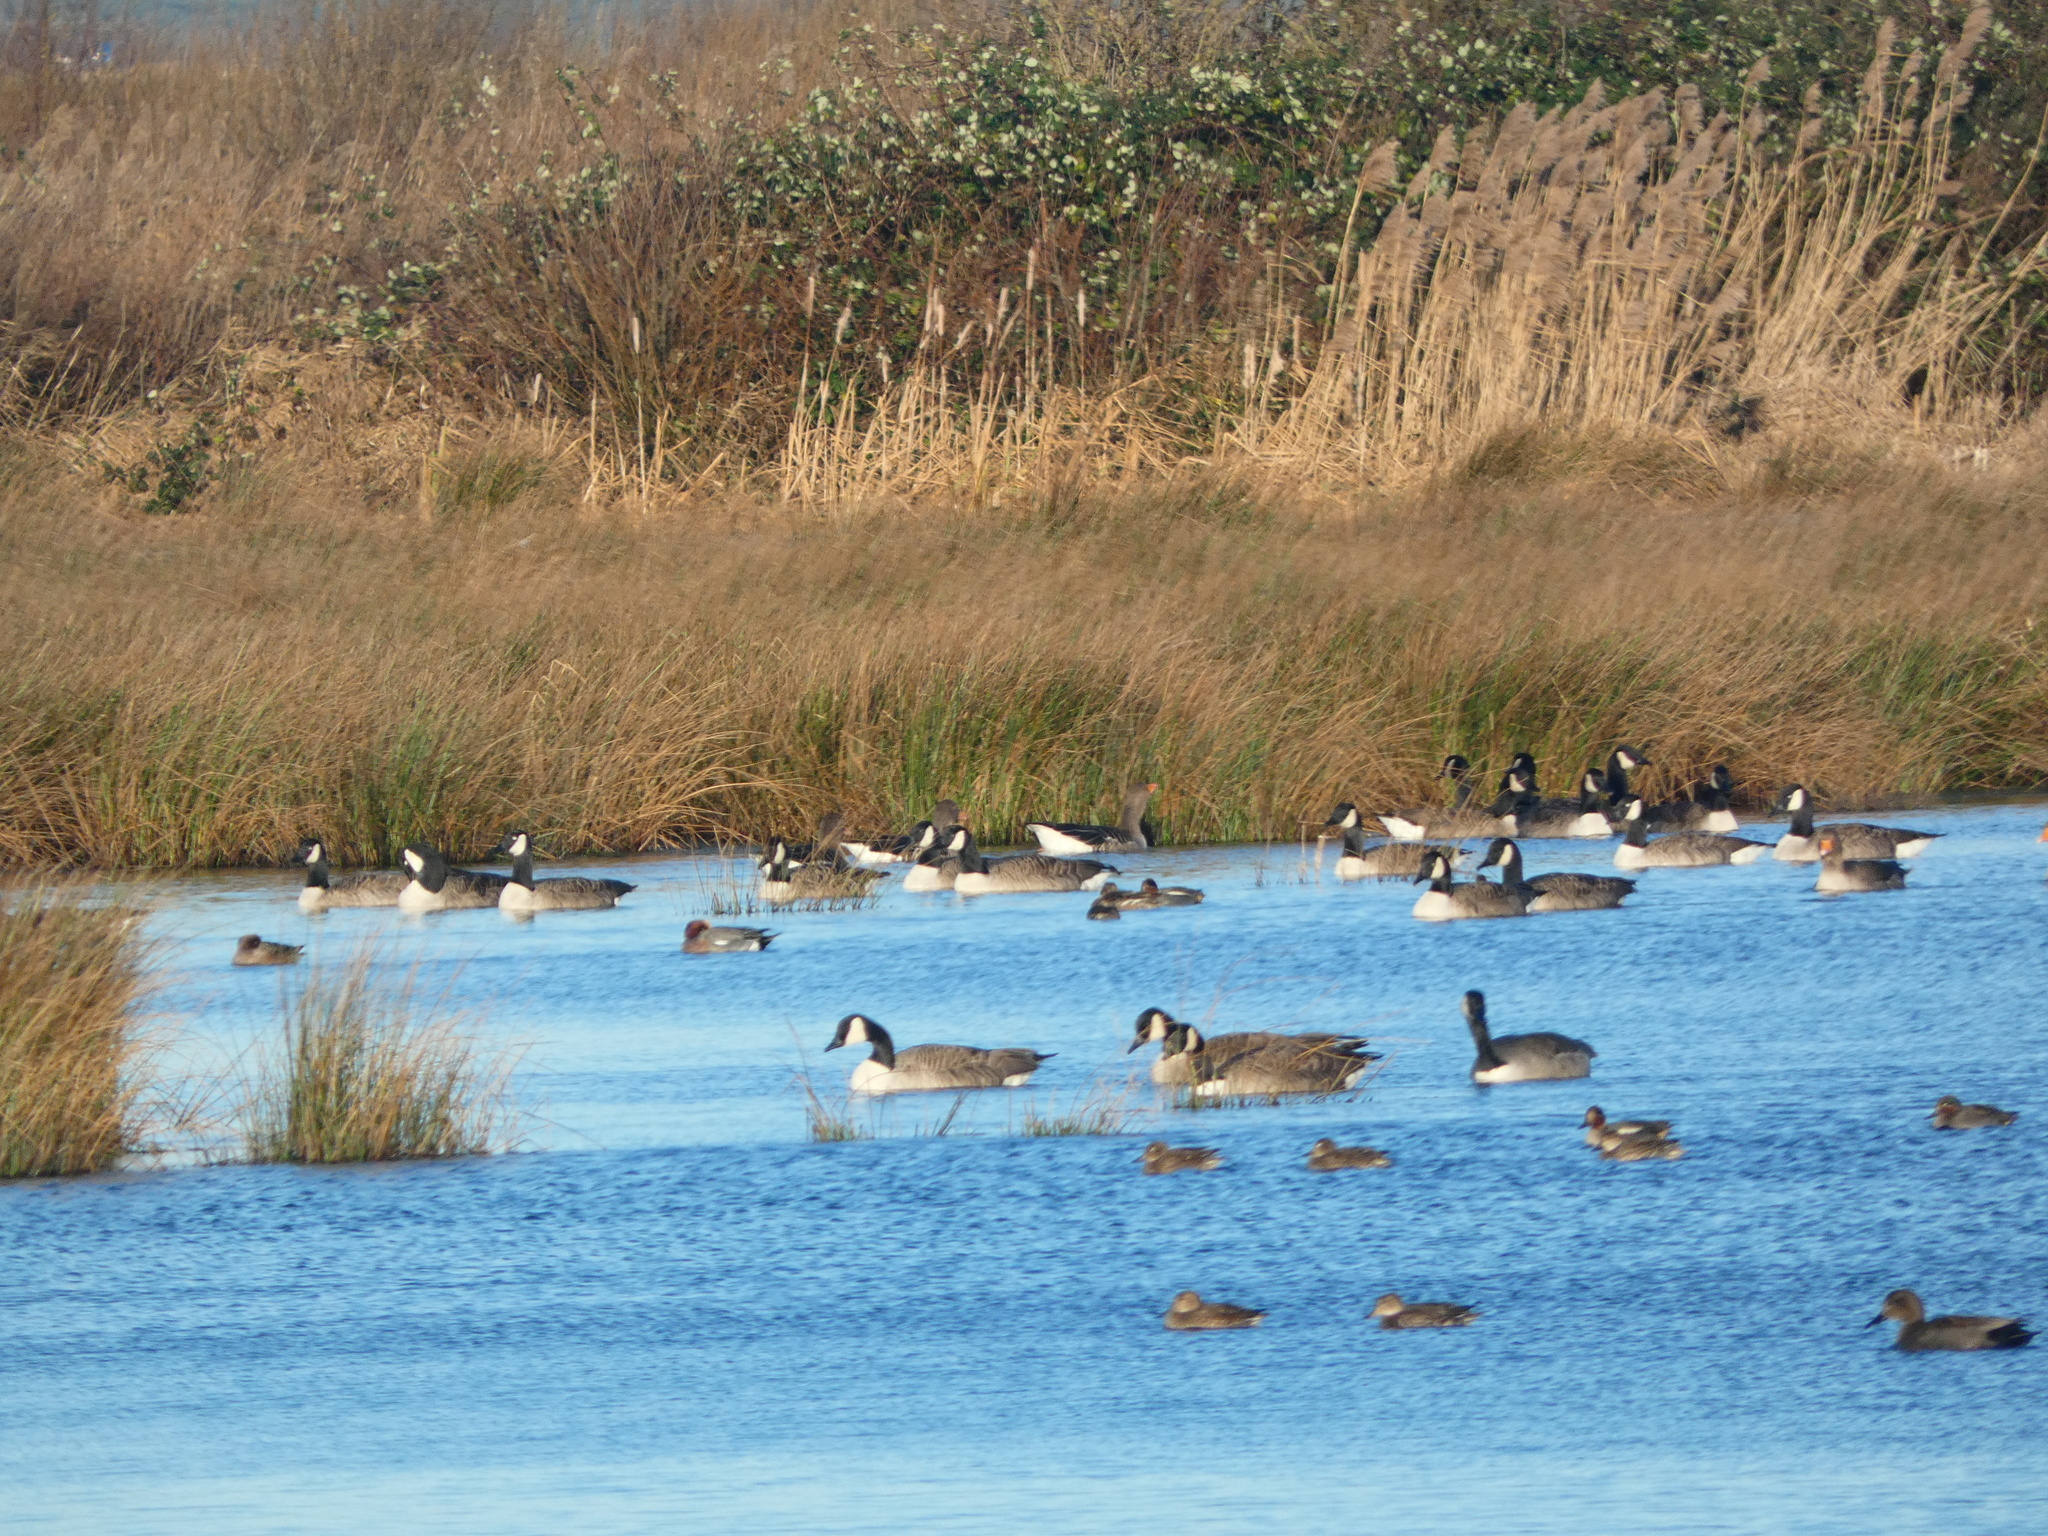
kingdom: Animalia
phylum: Chordata
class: Aves
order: Anseriformes
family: Anatidae
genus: Branta
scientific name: Branta canadensis
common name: Canada goose
